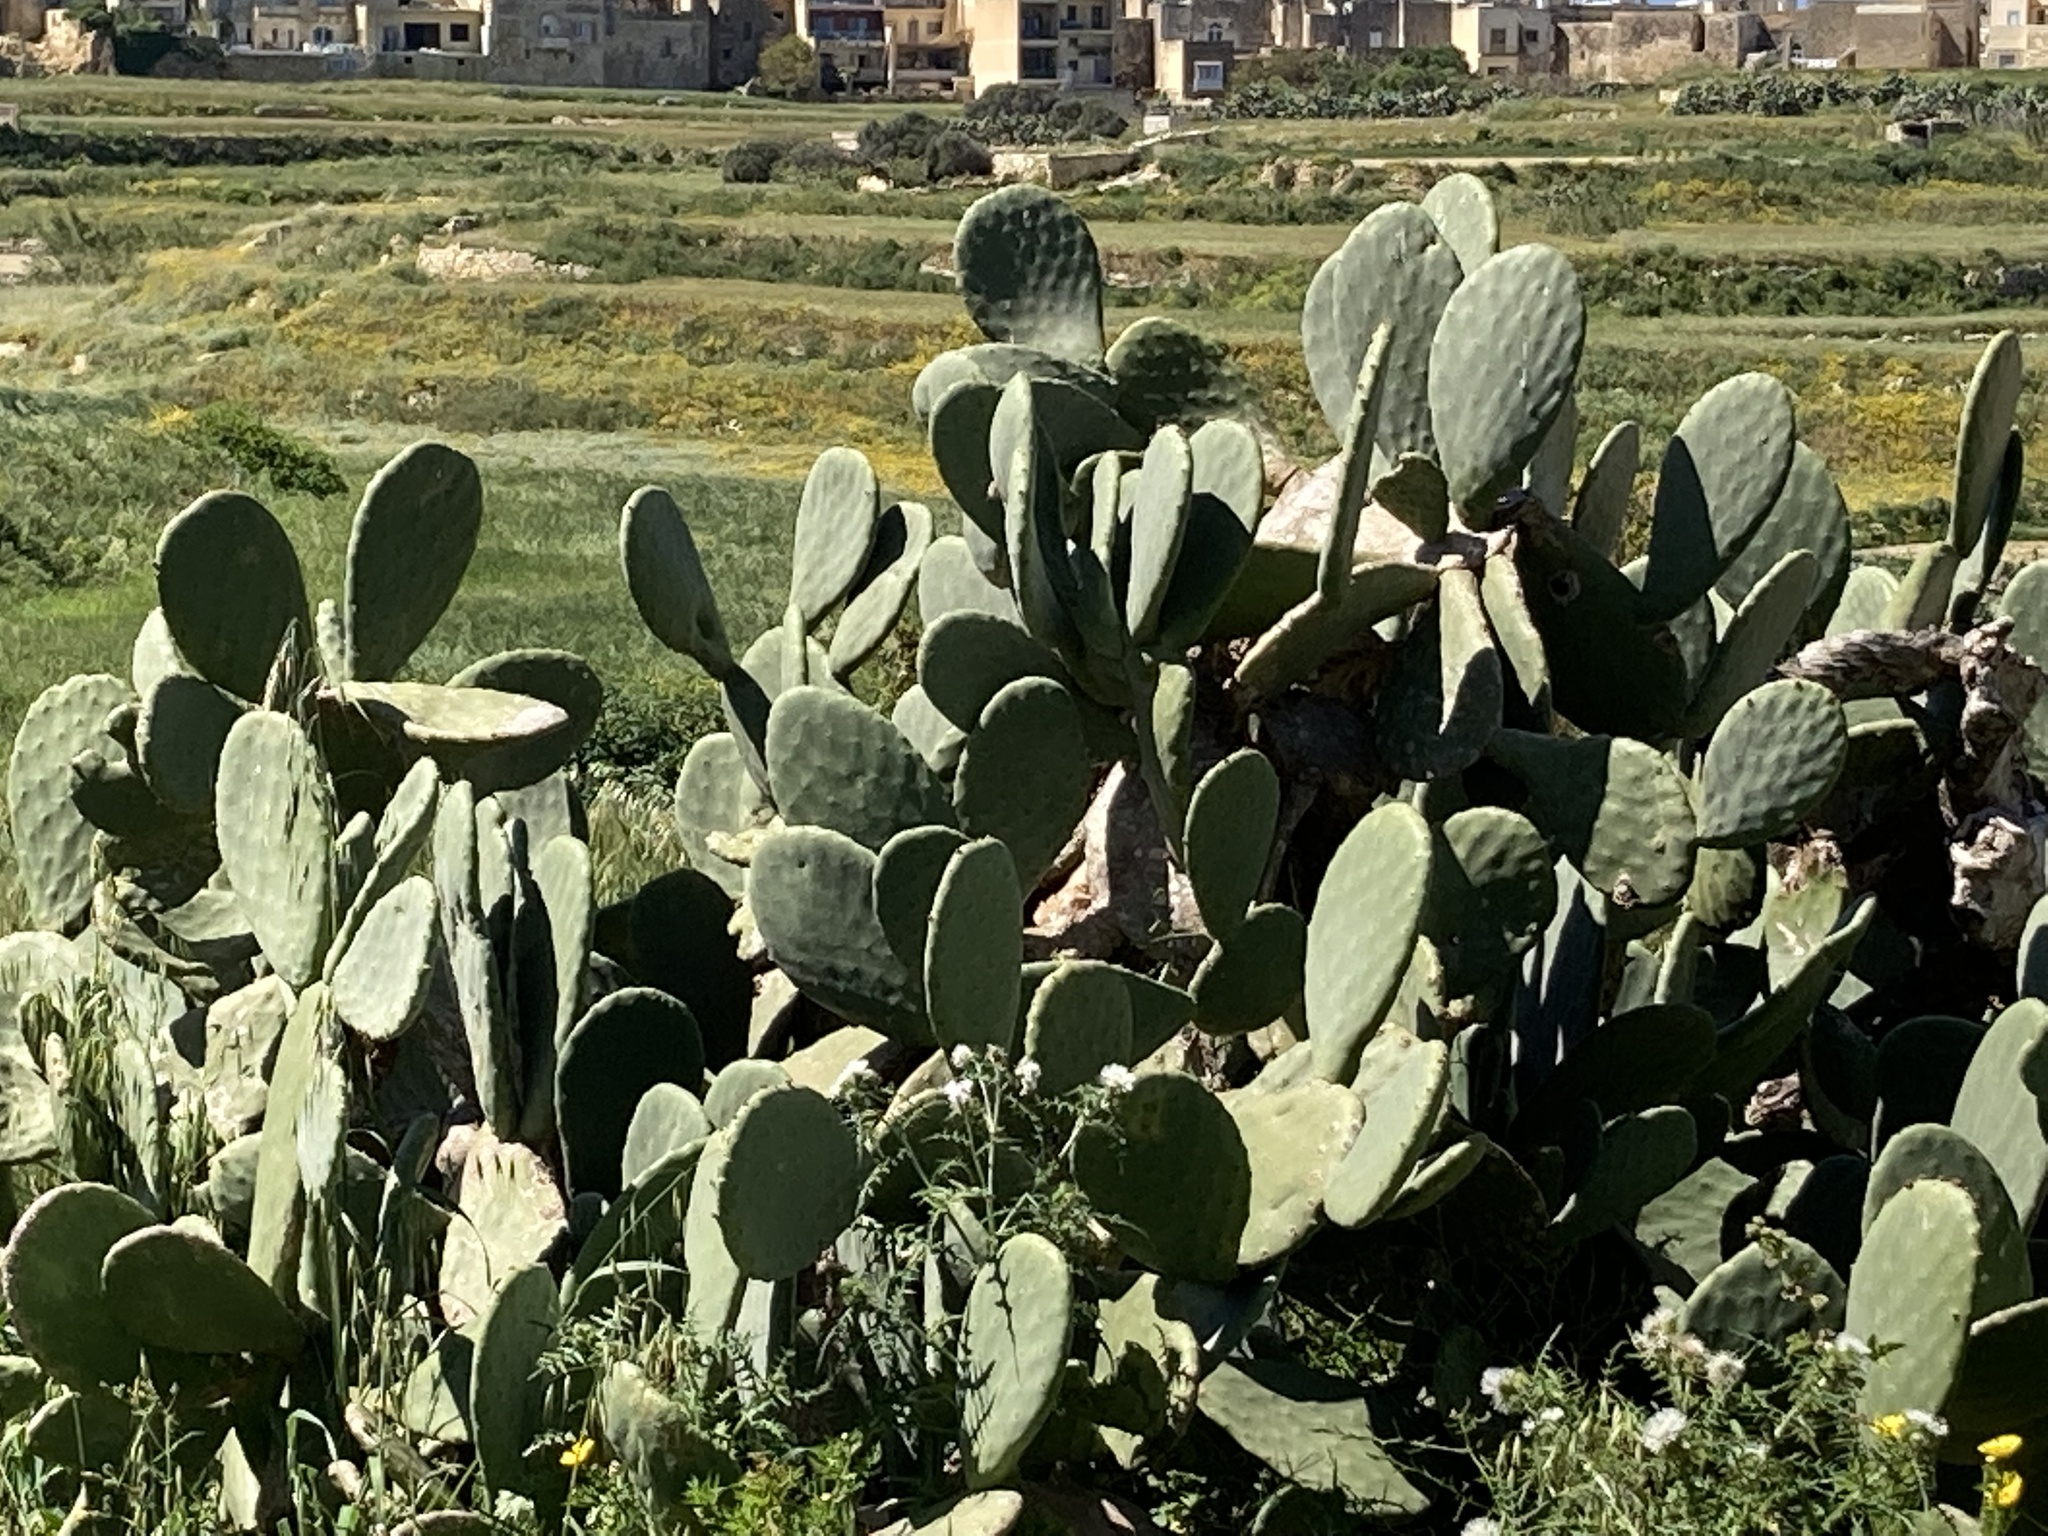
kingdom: Plantae
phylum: Tracheophyta
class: Magnoliopsida
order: Caryophyllales
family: Cactaceae
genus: Opuntia
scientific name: Opuntia ficus-indica
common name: Barbary fig
